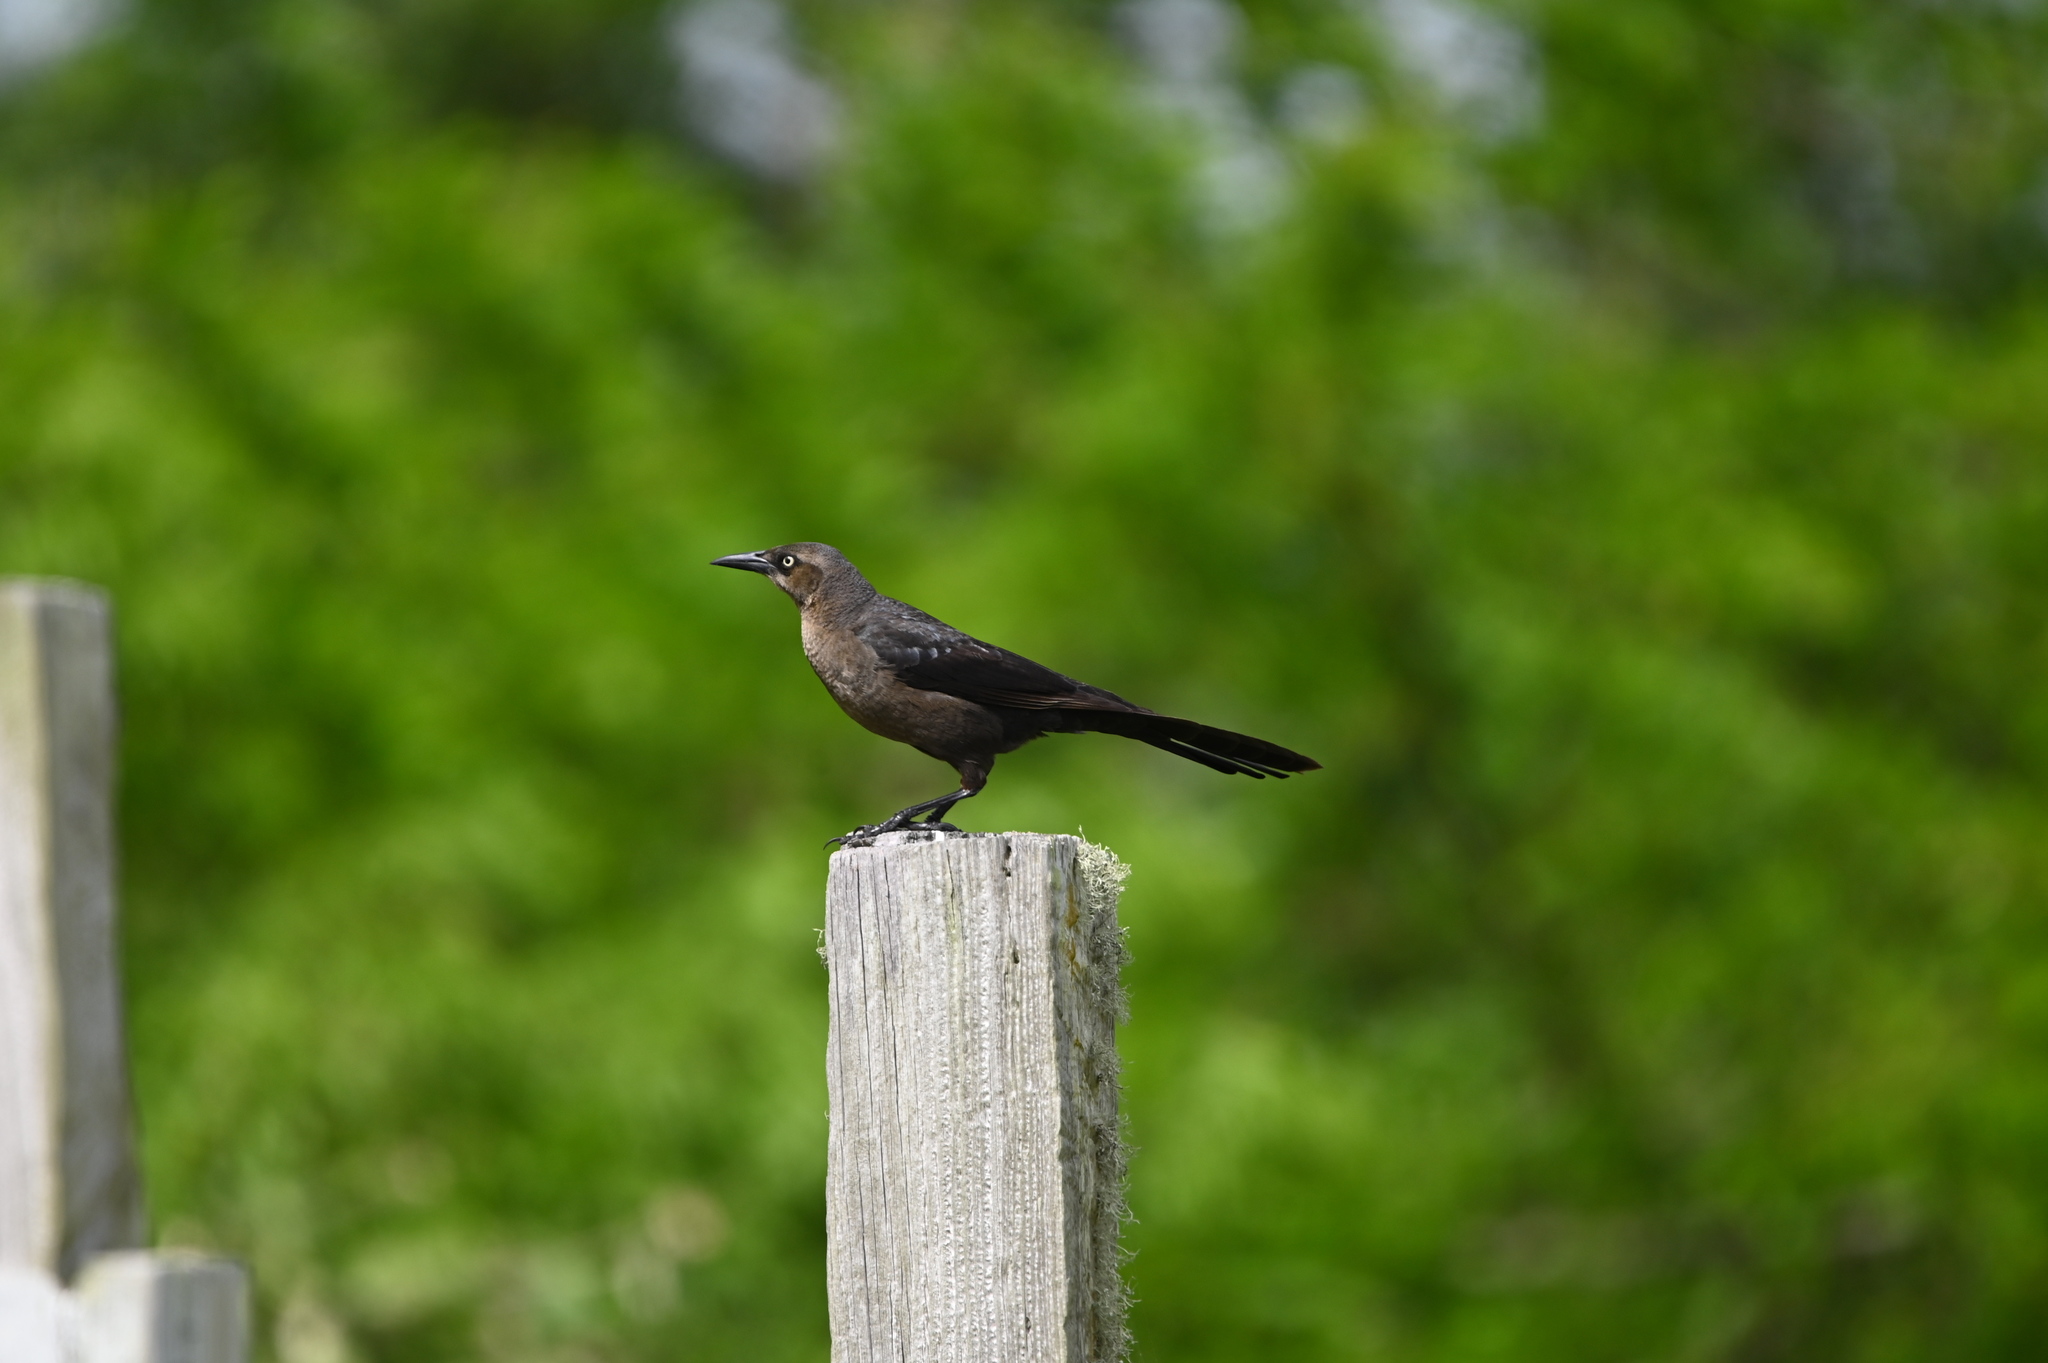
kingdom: Animalia
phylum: Chordata
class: Aves
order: Passeriformes
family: Icteridae
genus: Quiscalus
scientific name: Quiscalus mexicanus
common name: Great-tailed grackle
